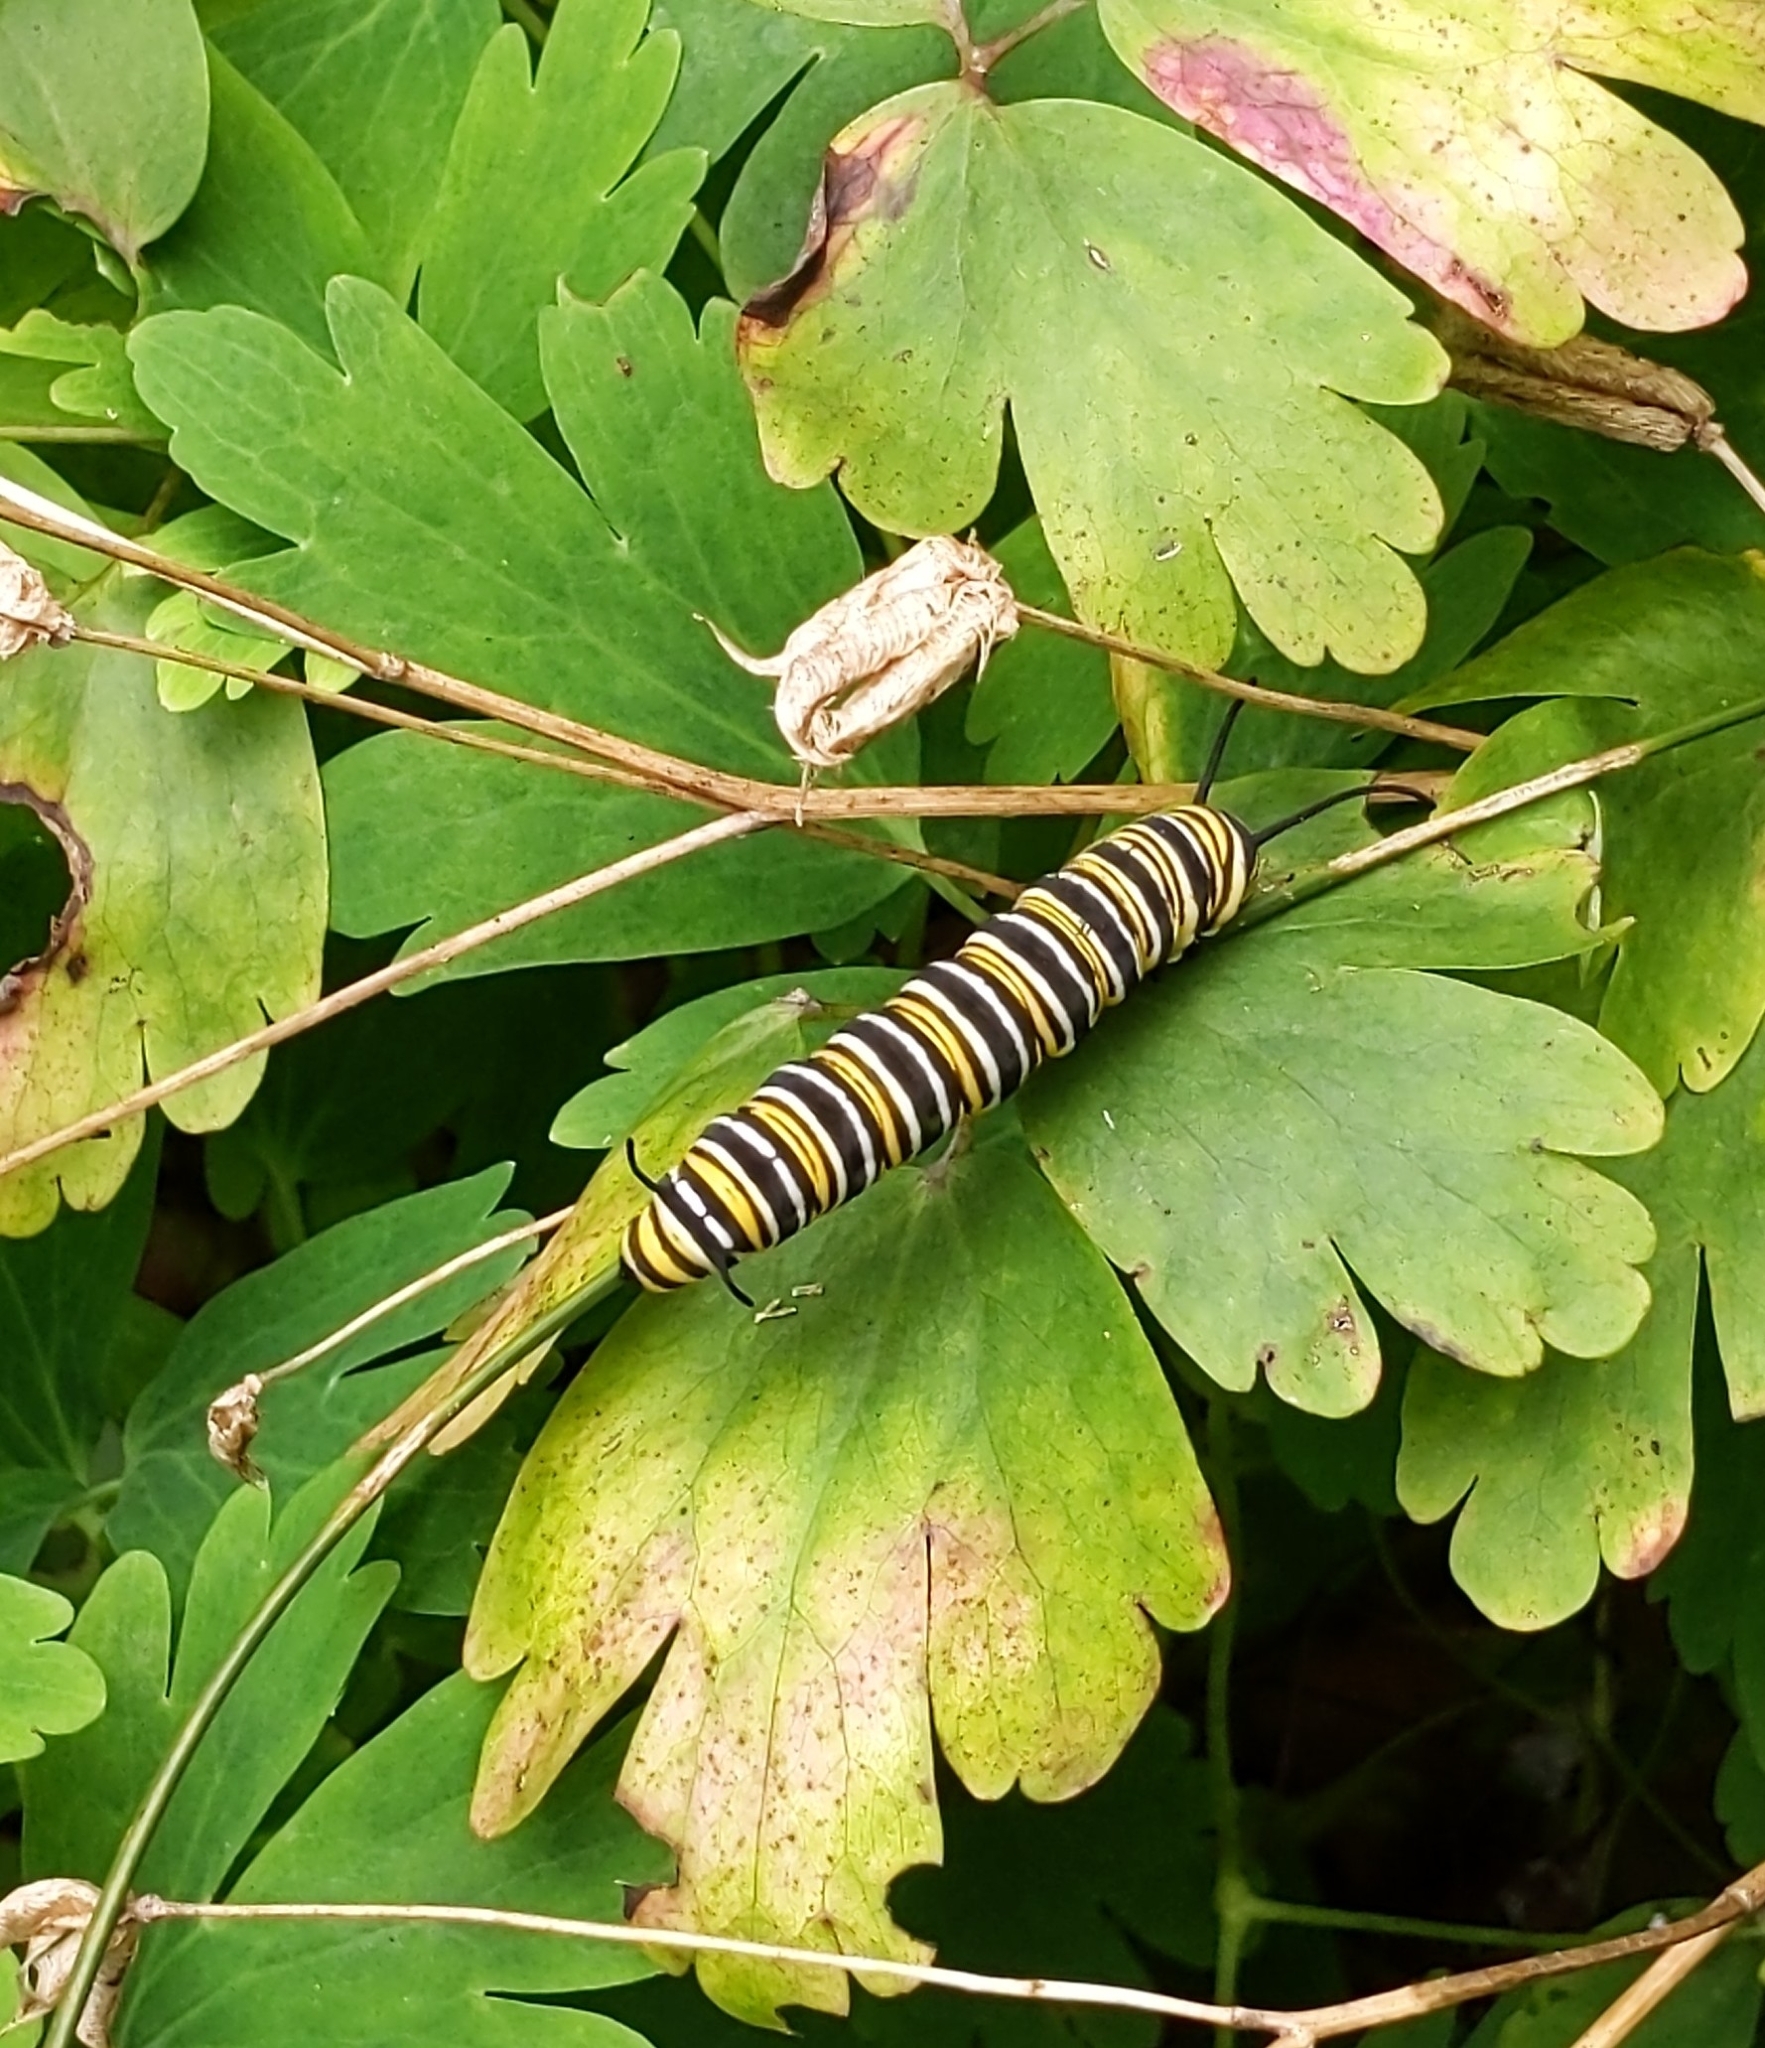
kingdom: Animalia
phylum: Arthropoda
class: Insecta
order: Lepidoptera
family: Nymphalidae
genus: Danaus
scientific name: Danaus plexippus
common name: Monarch
